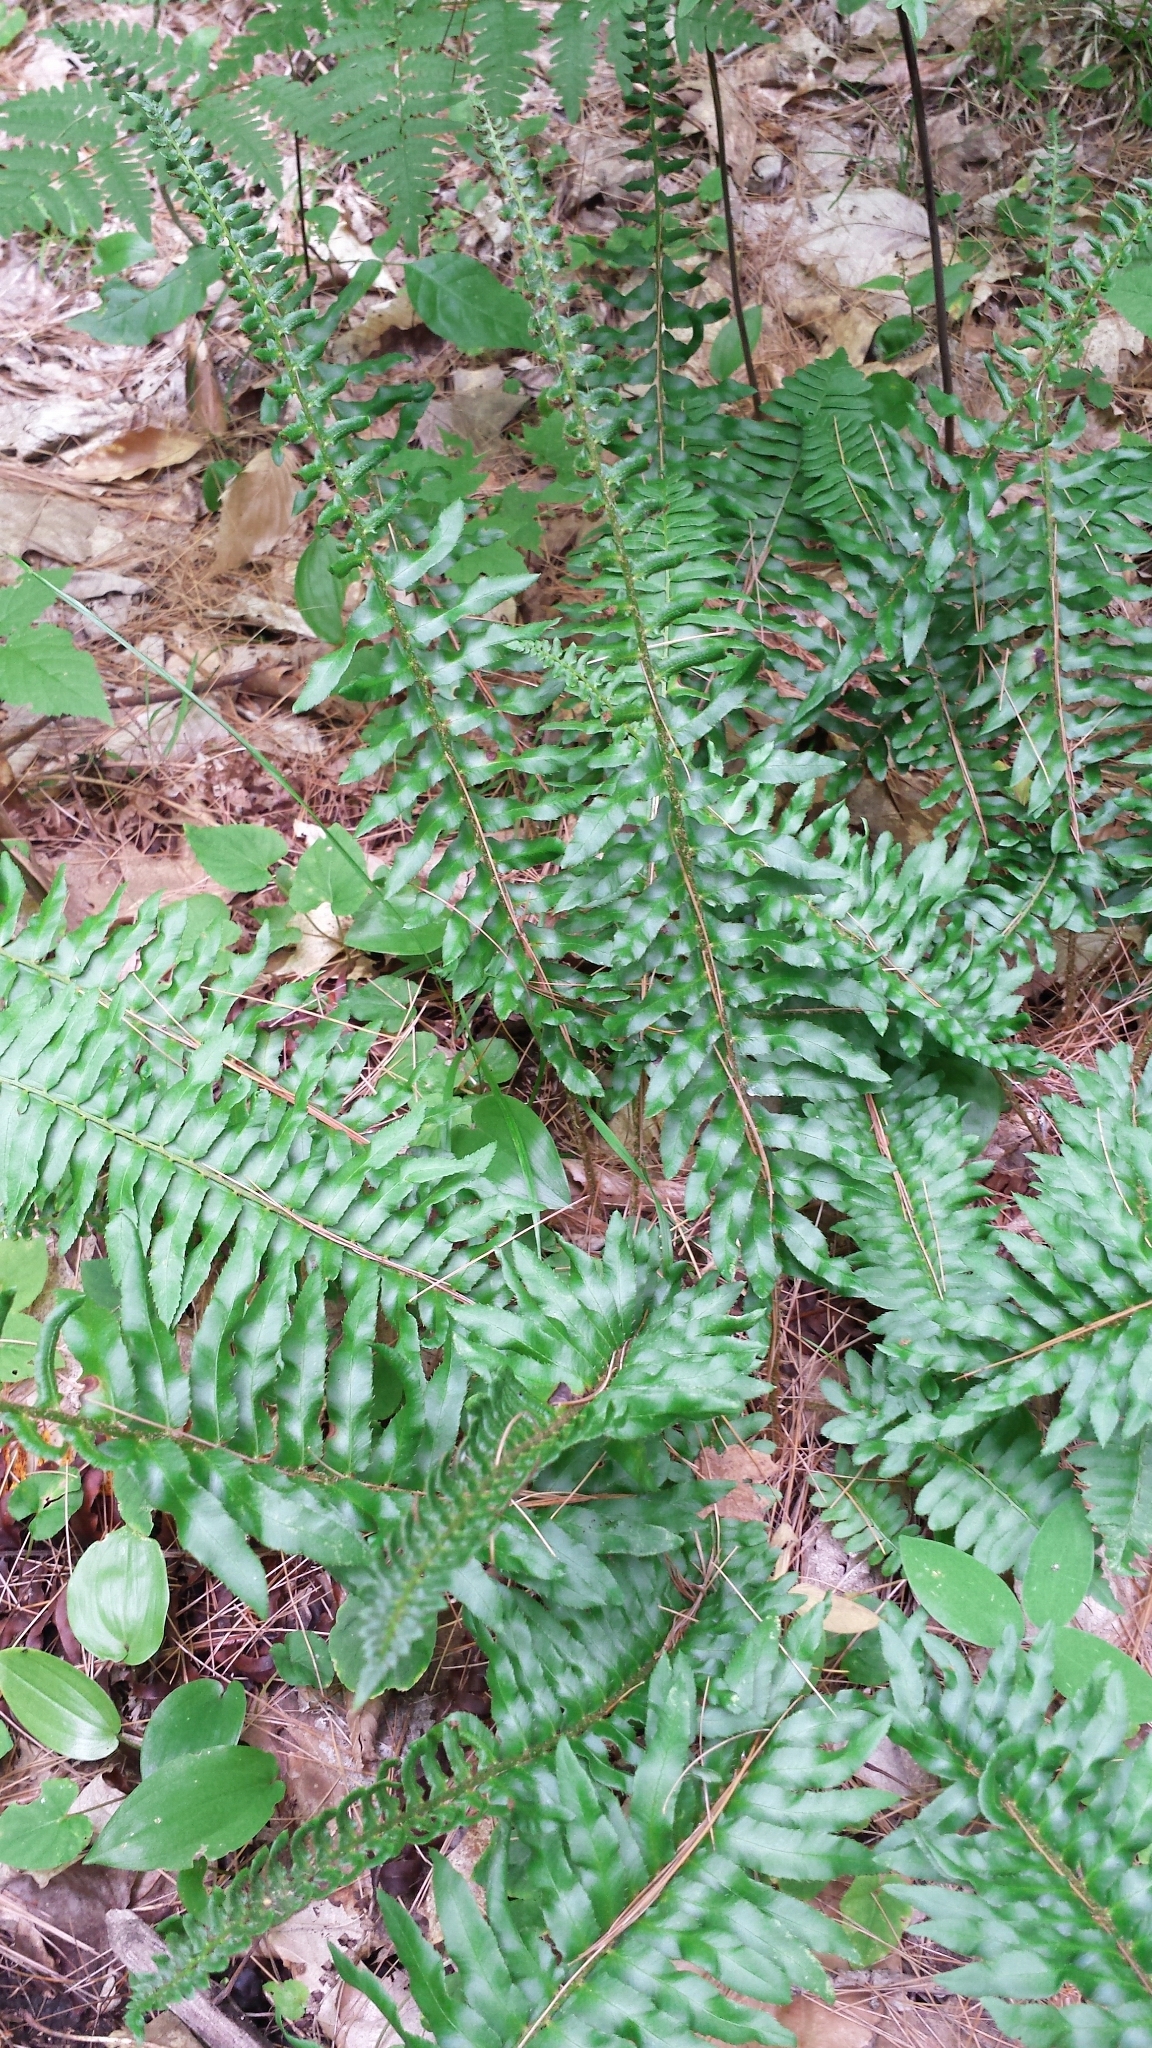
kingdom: Plantae
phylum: Tracheophyta
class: Polypodiopsida
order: Polypodiales
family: Dryopteridaceae
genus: Polystichum
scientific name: Polystichum acrostichoides
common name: Christmas fern
